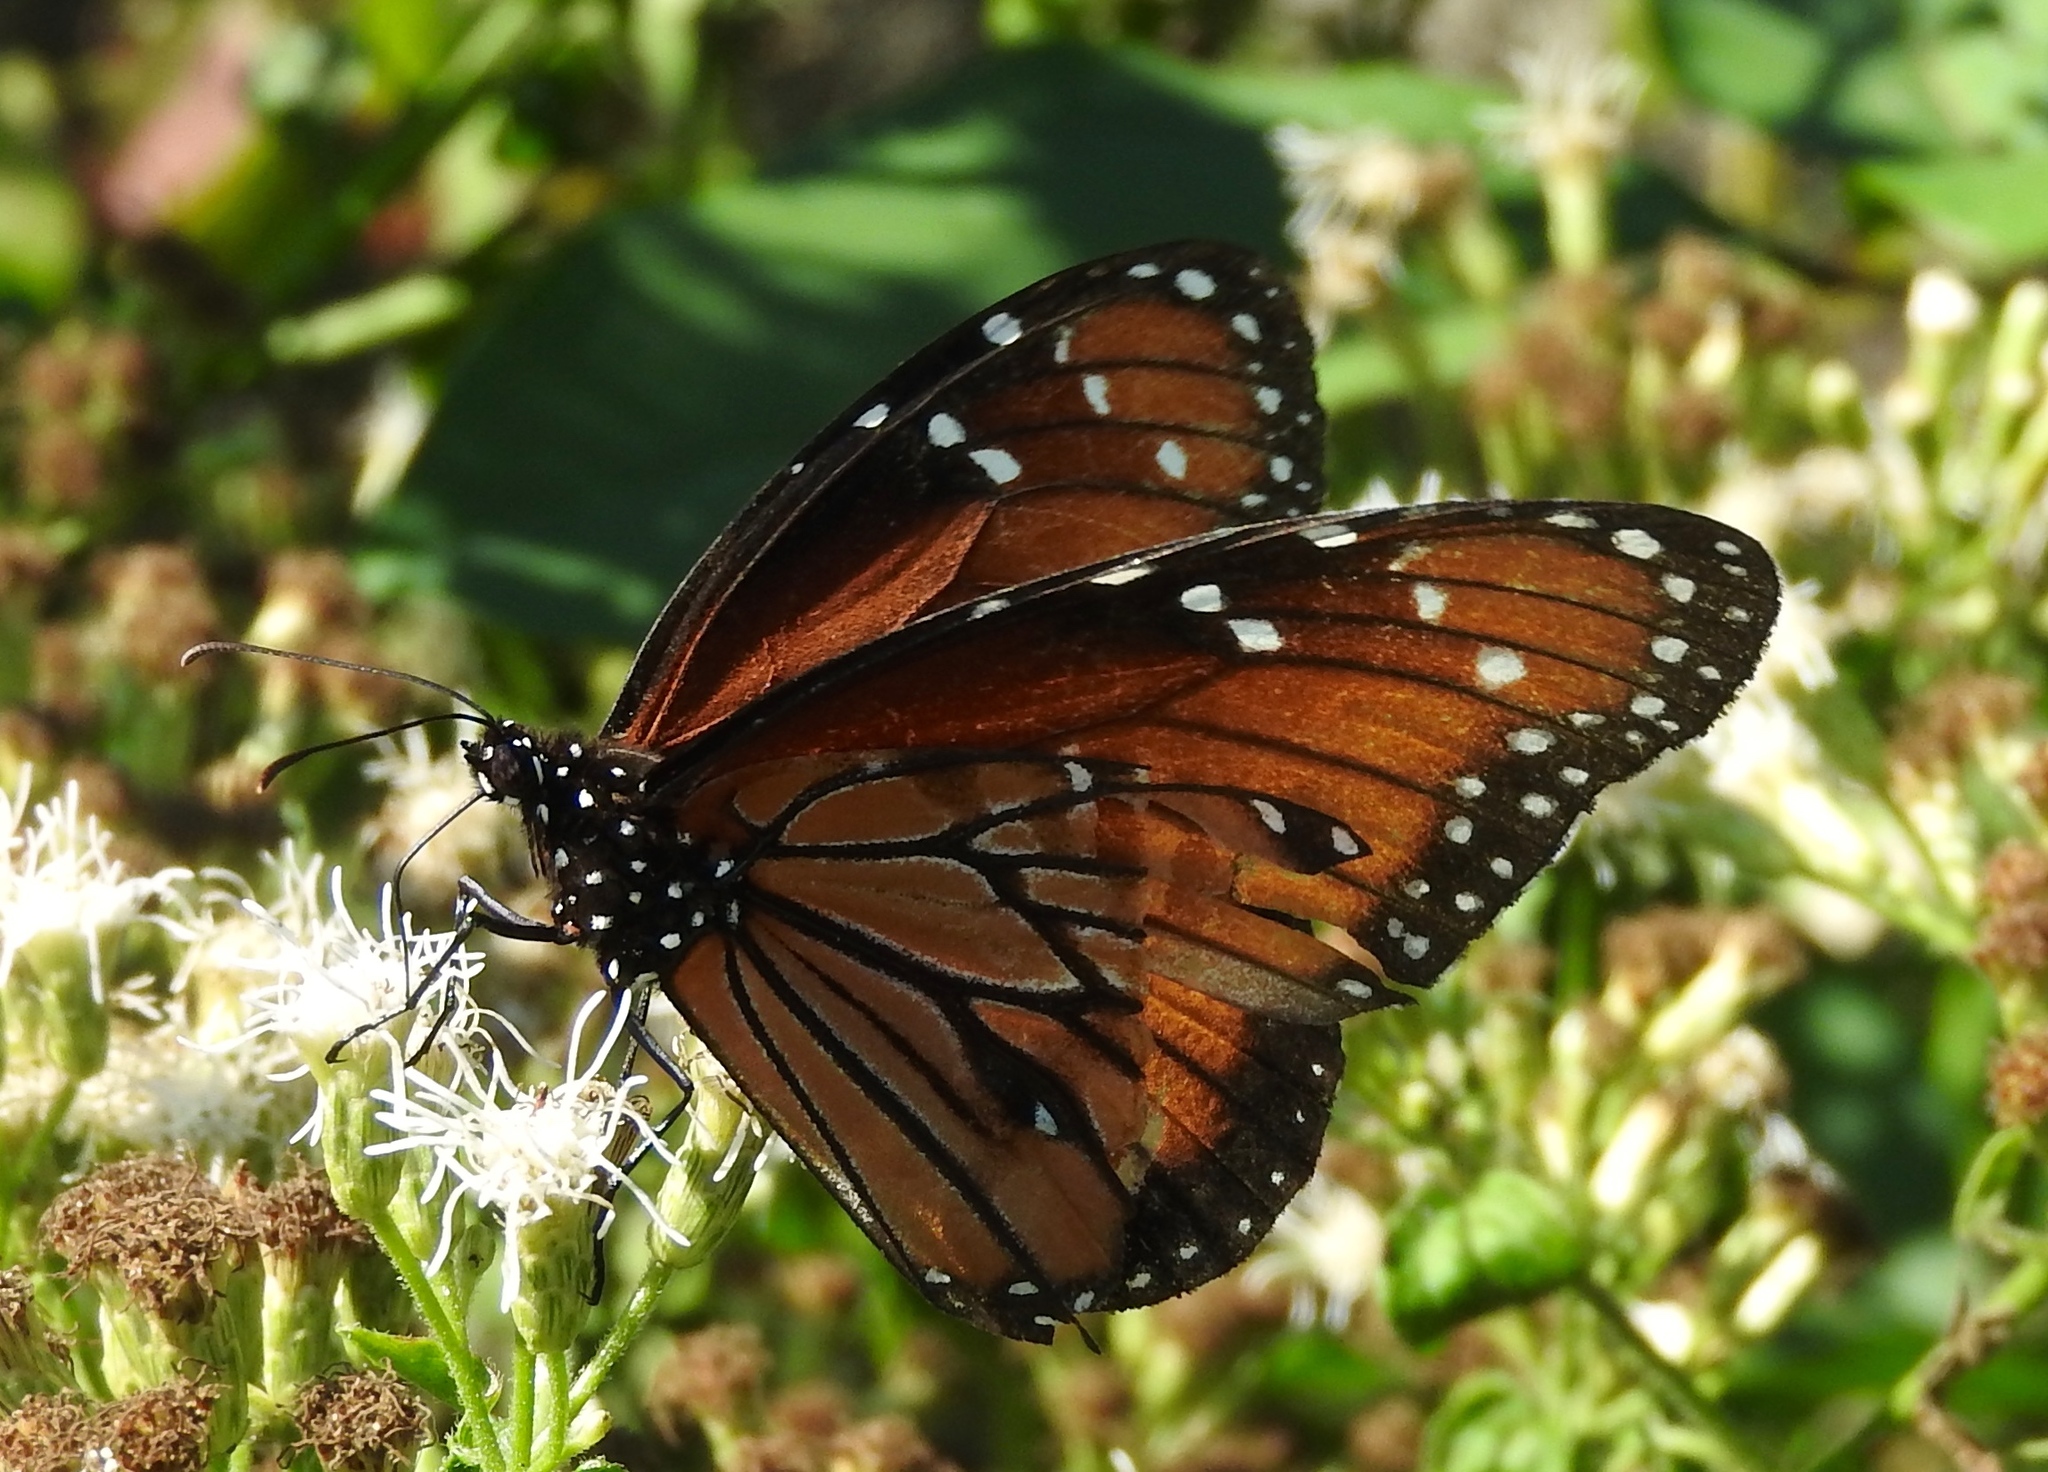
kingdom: Animalia
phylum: Arthropoda
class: Insecta
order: Lepidoptera
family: Nymphalidae
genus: Danaus
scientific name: Danaus eresimus
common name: Soldier
